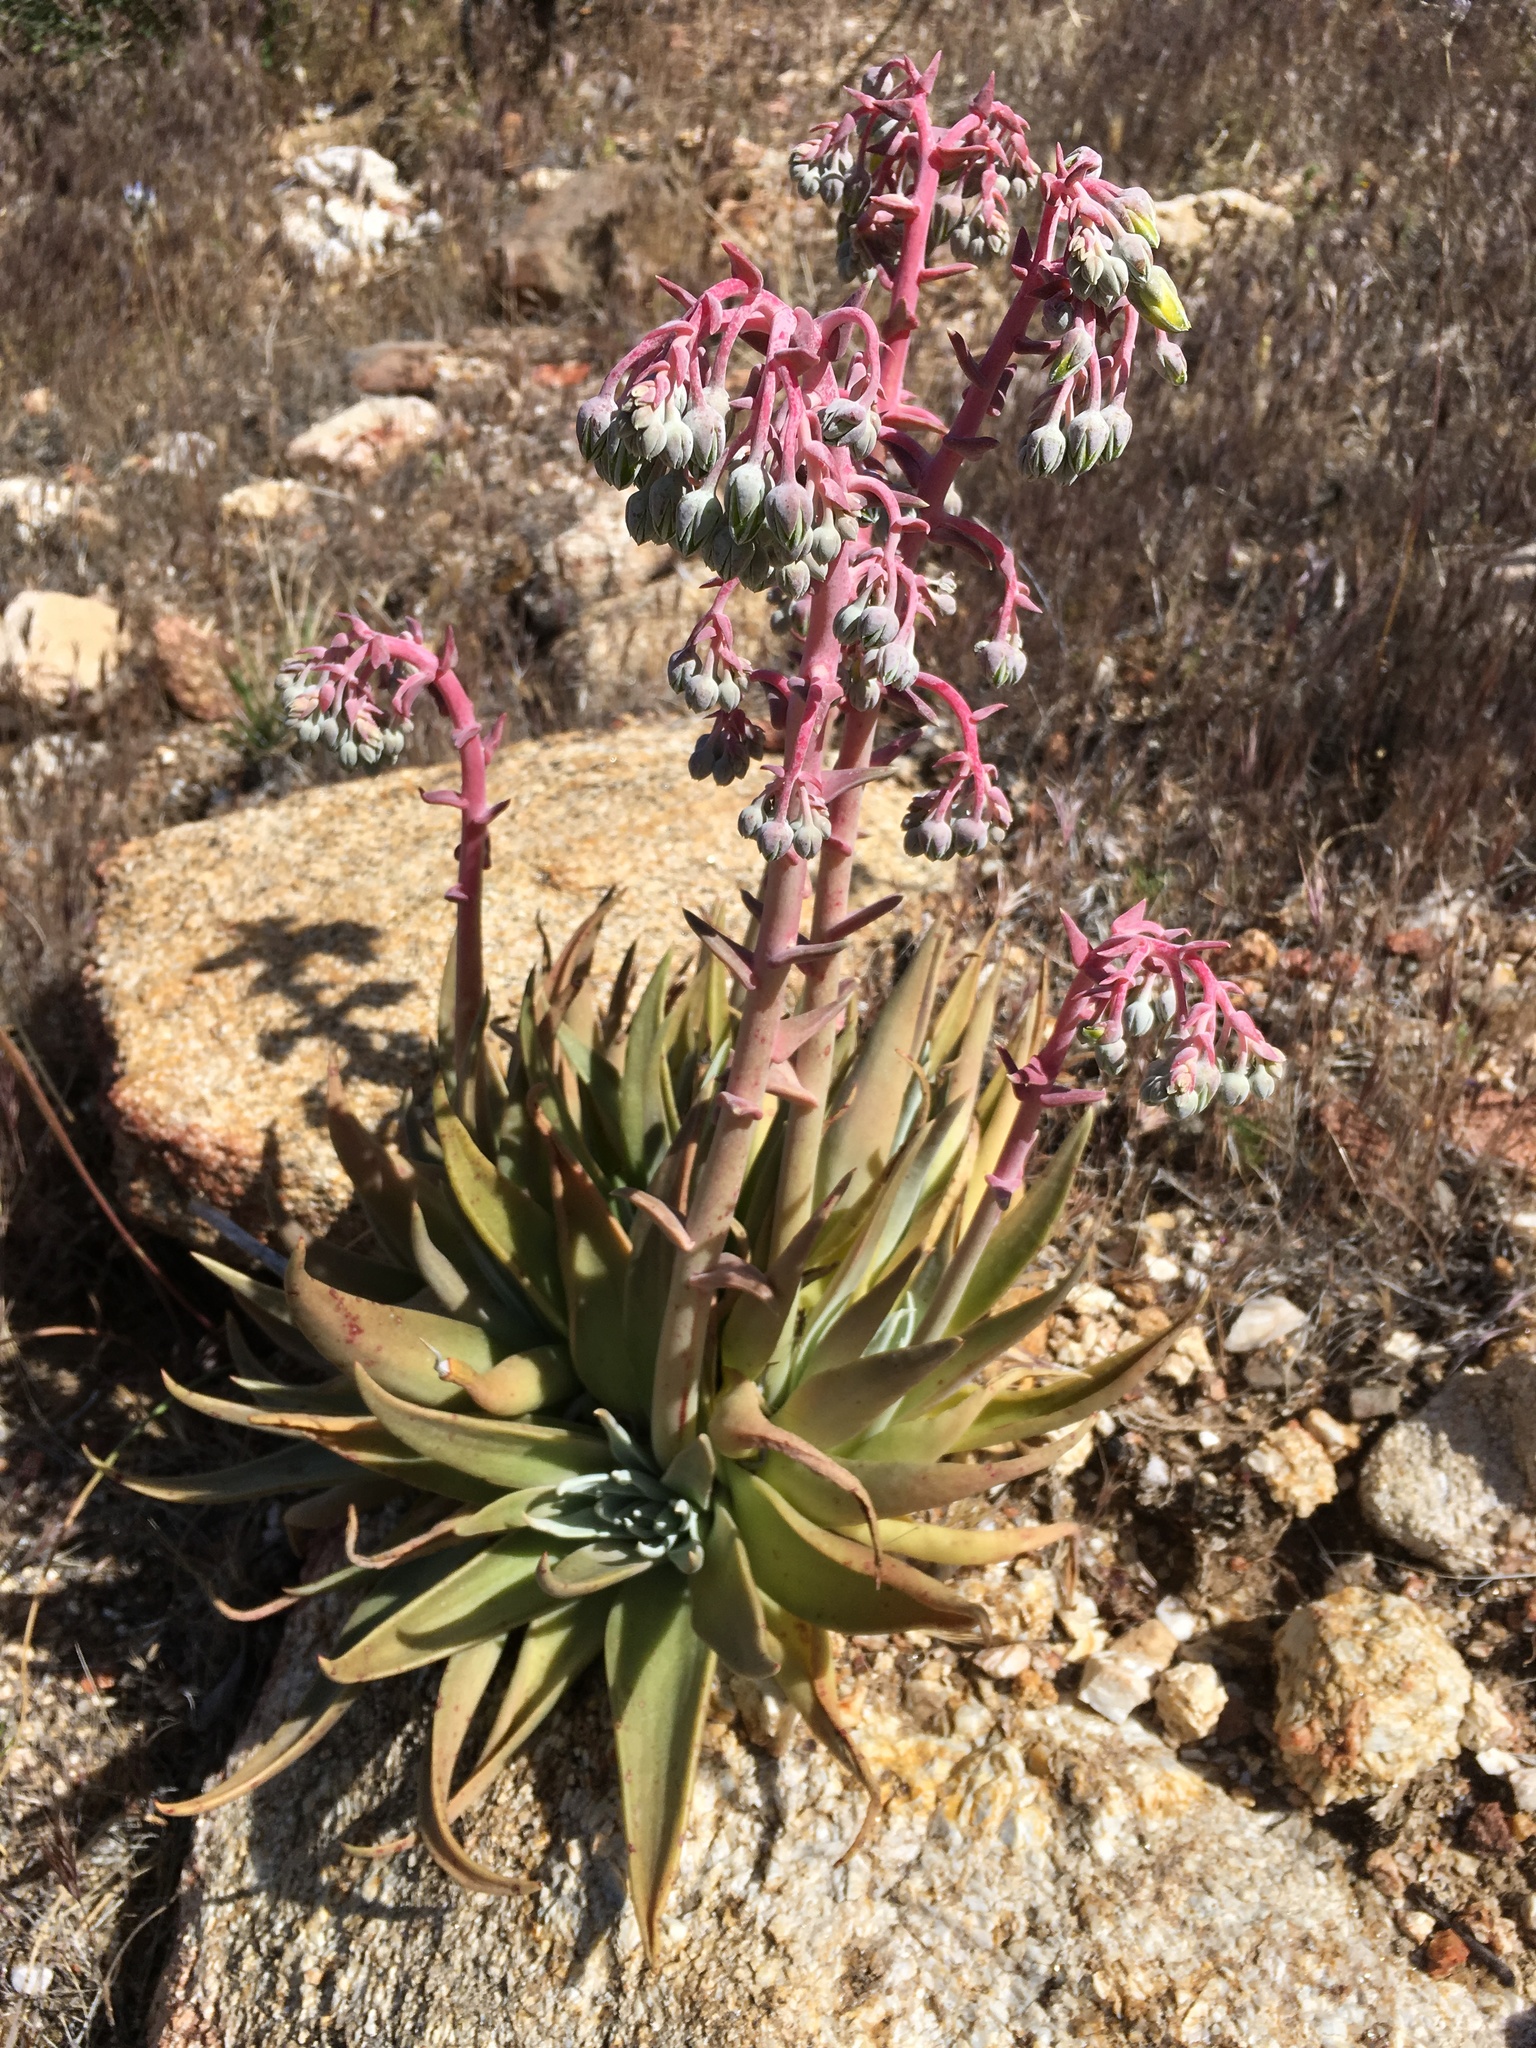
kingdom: Plantae
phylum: Tracheophyta
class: Magnoliopsida
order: Saxifragales
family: Crassulaceae
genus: Dudleya
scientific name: Dudleya saxosa
